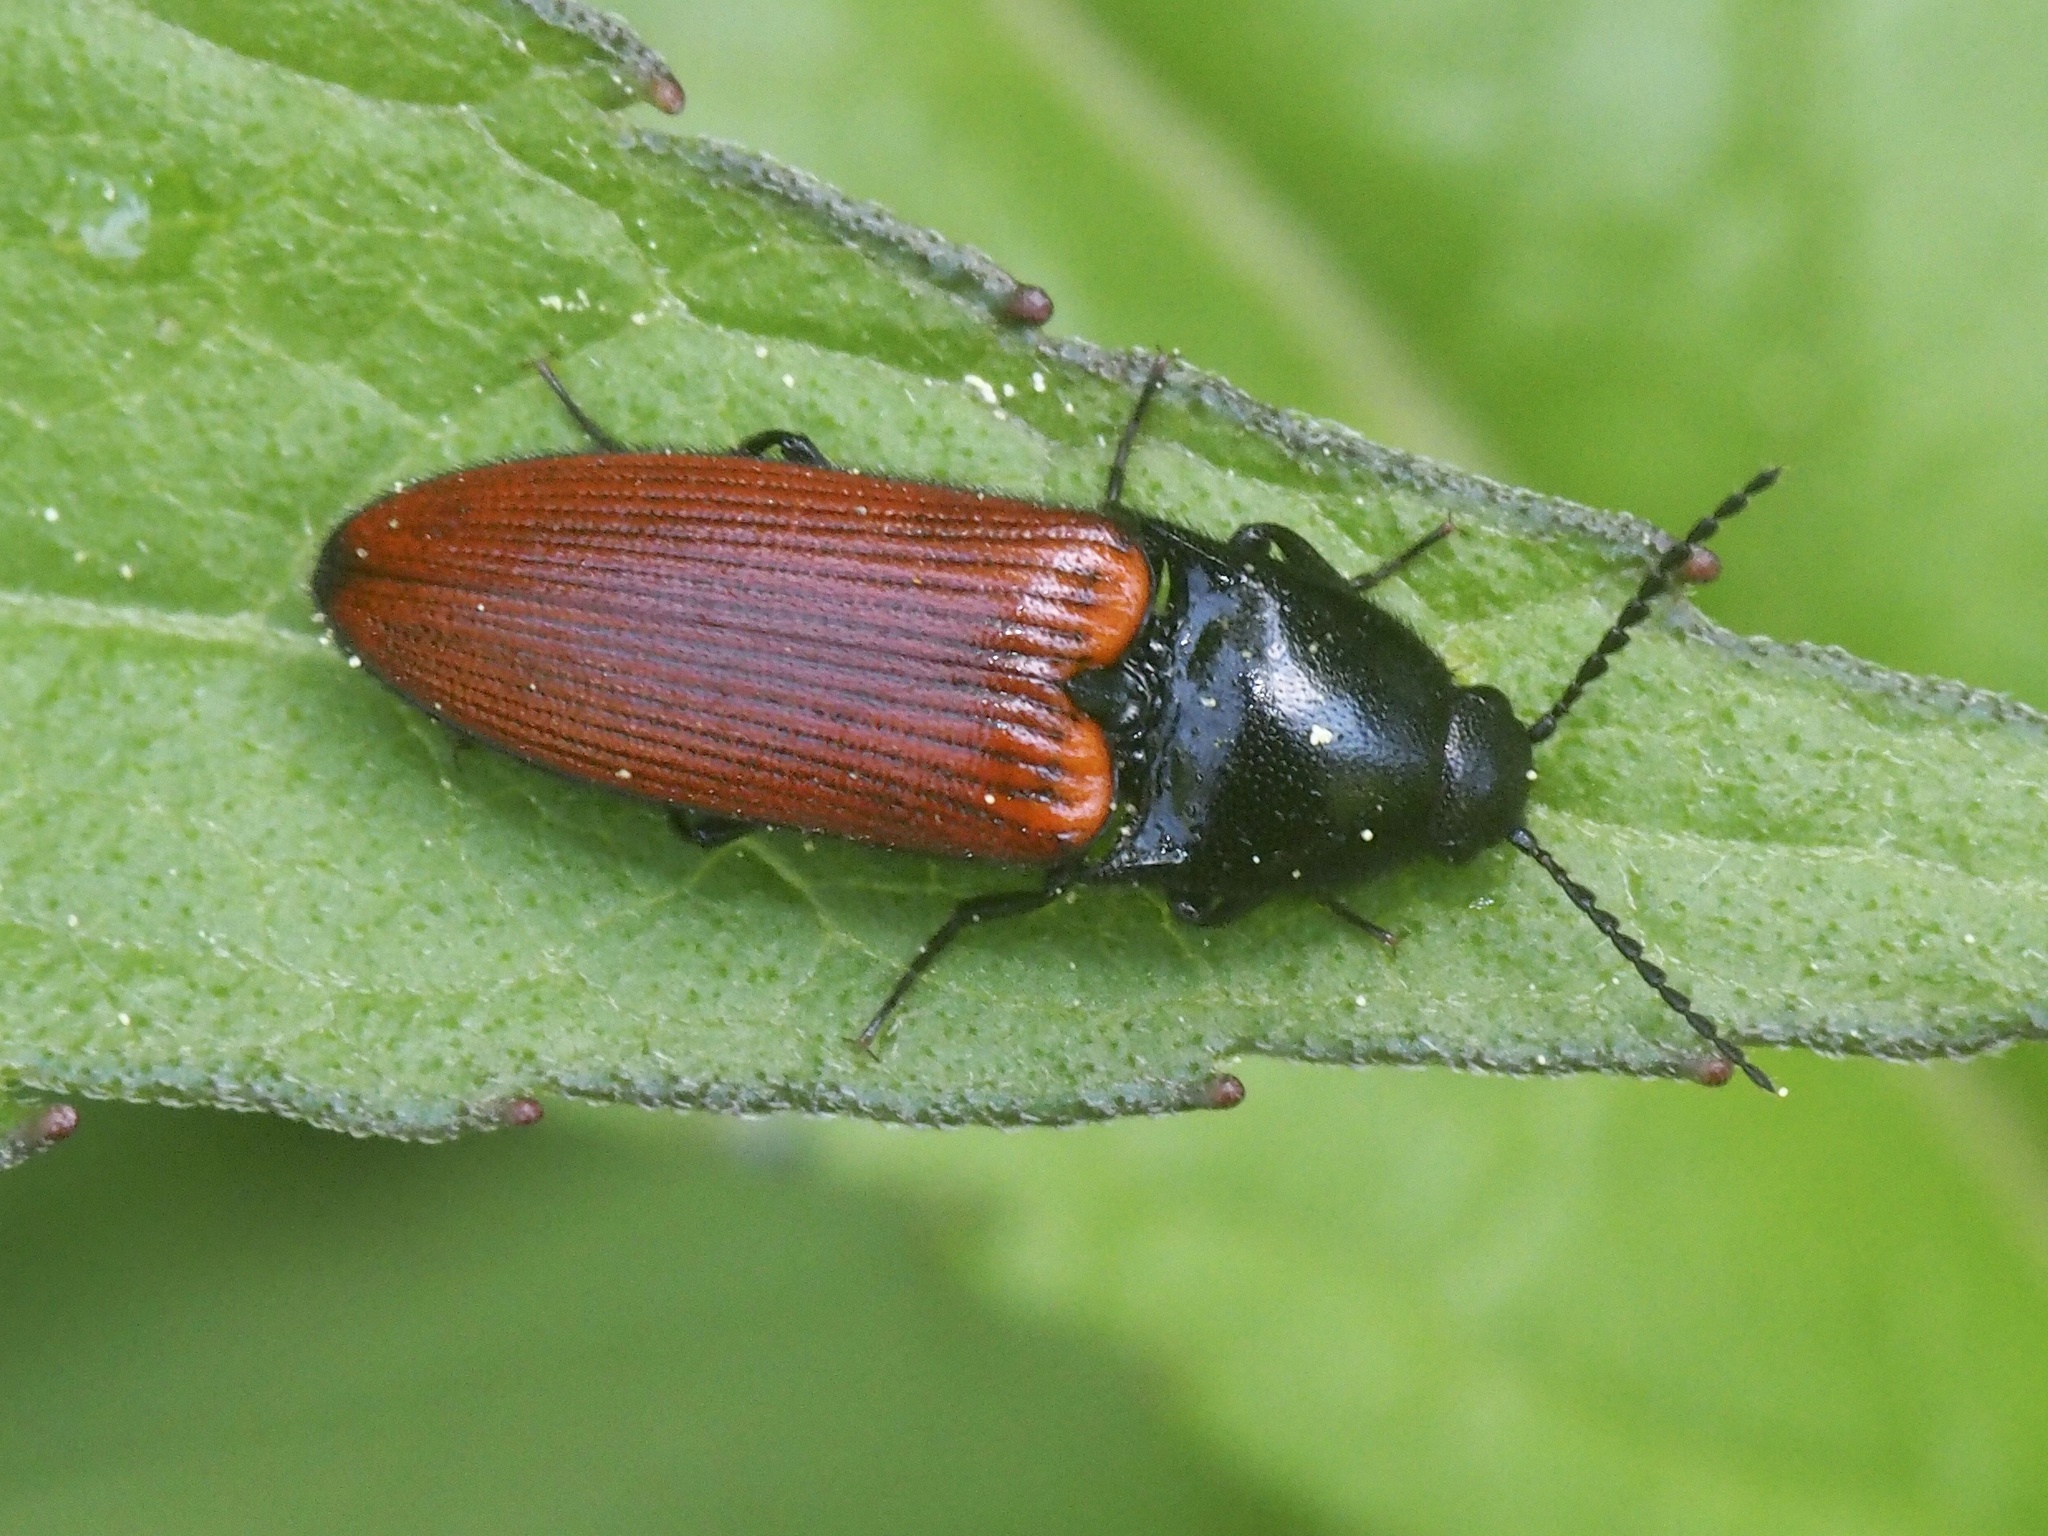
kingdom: Animalia
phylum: Arthropoda
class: Insecta
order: Coleoptera
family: Elateridae
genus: Ampedus
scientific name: Ampedus sanguineus
